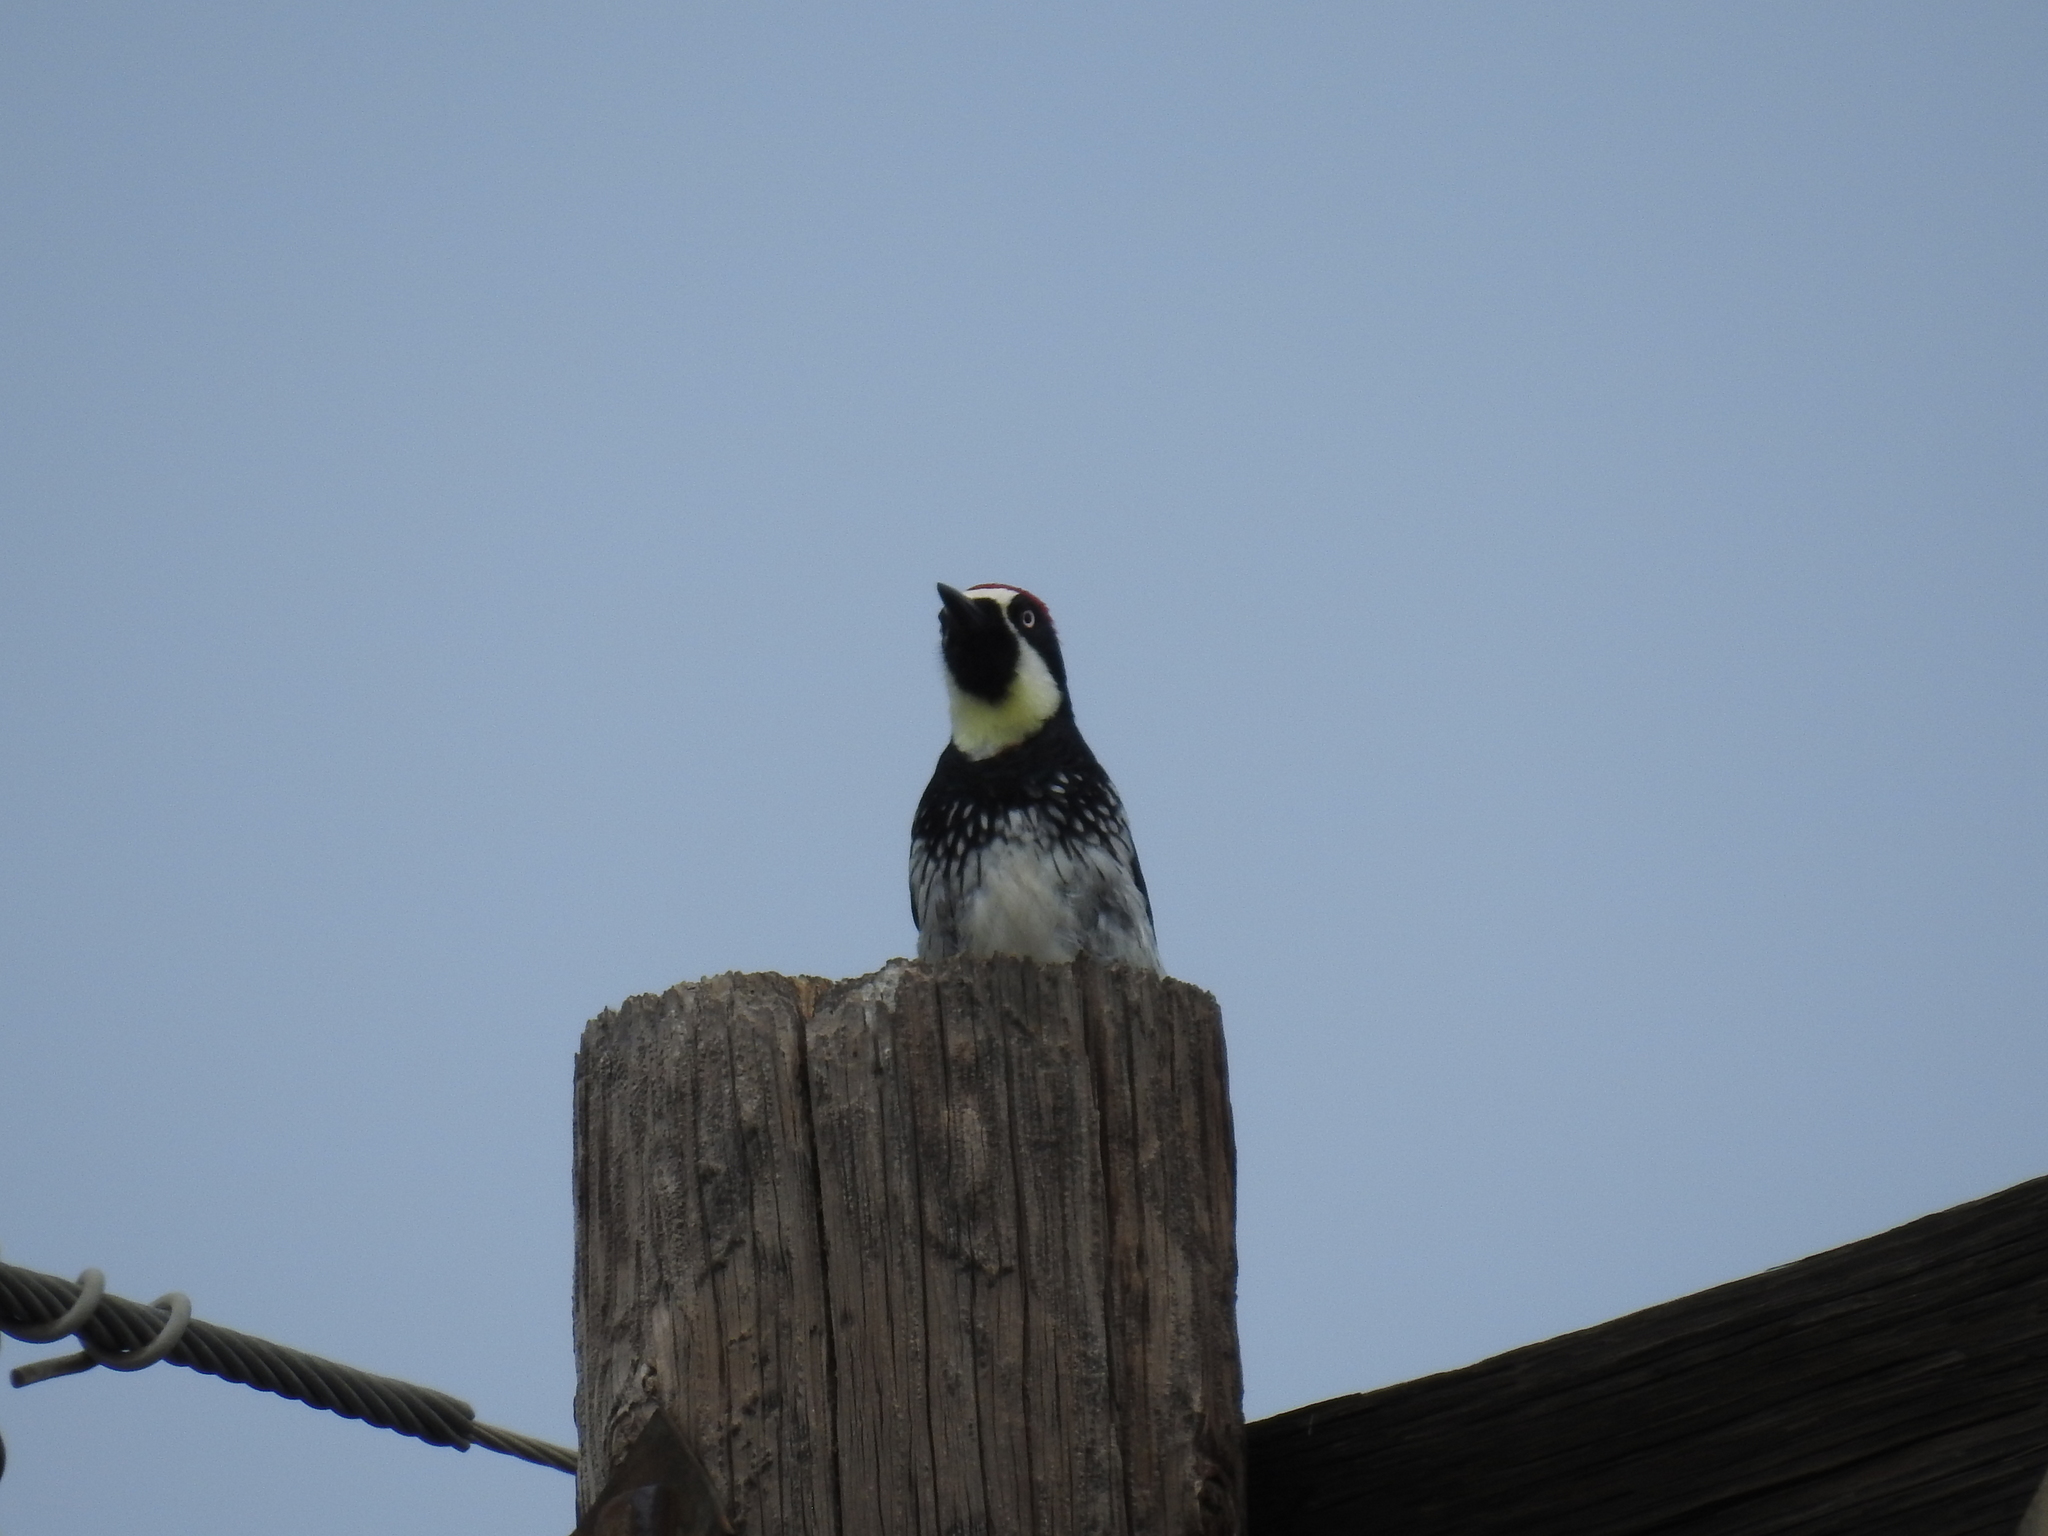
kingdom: Animalia
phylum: Chordata
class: Aves
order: Piciformes
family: Picidae
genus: Melanerpes
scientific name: Melanerpes formicivorus
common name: Acorn woodpecker
